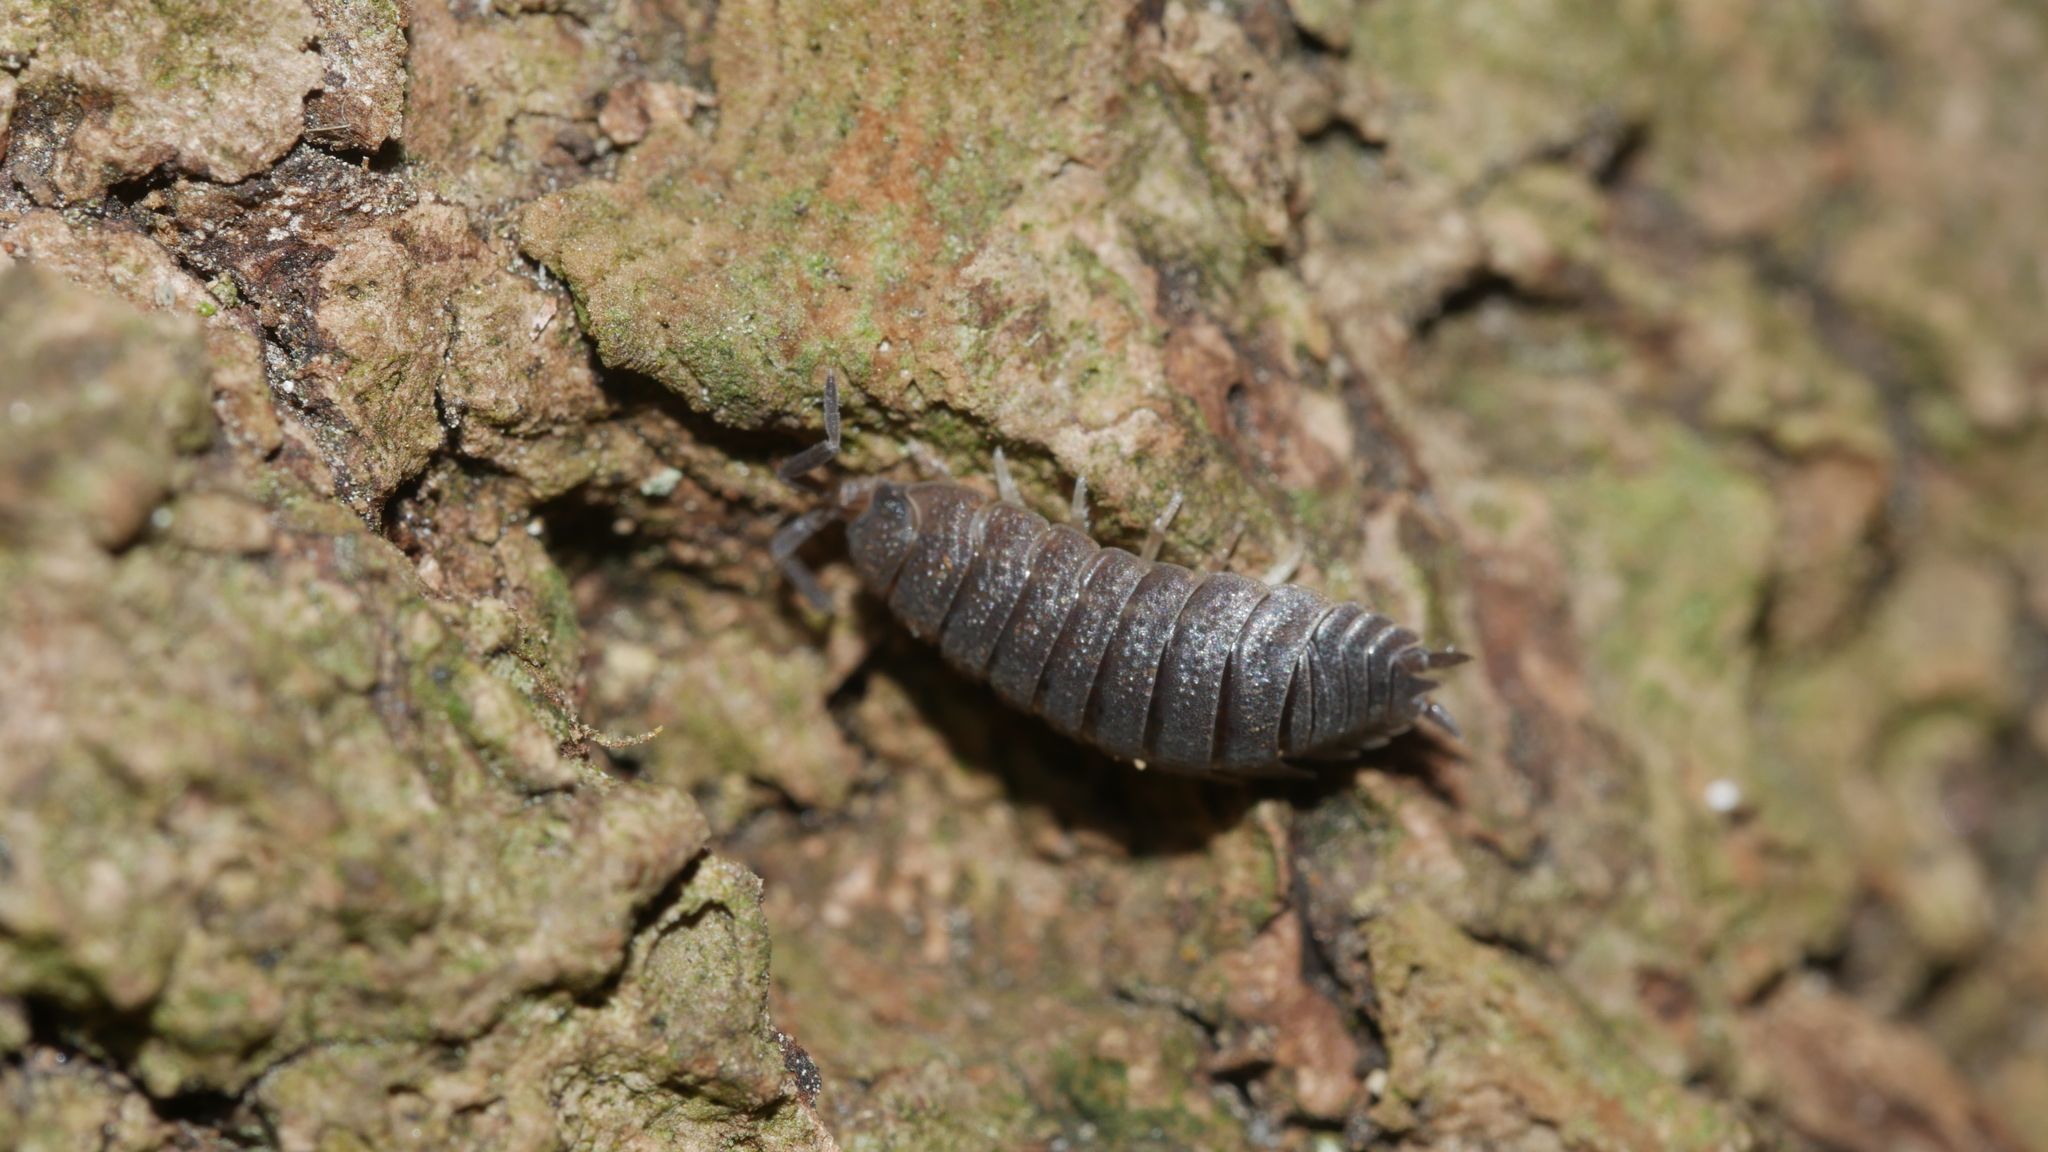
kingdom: Animalia
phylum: Arthropoda
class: Malacostraca
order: Isopoda
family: Porcellionidae
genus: Porcellio
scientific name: Porcellio scaber
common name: Common rough woodlouse
